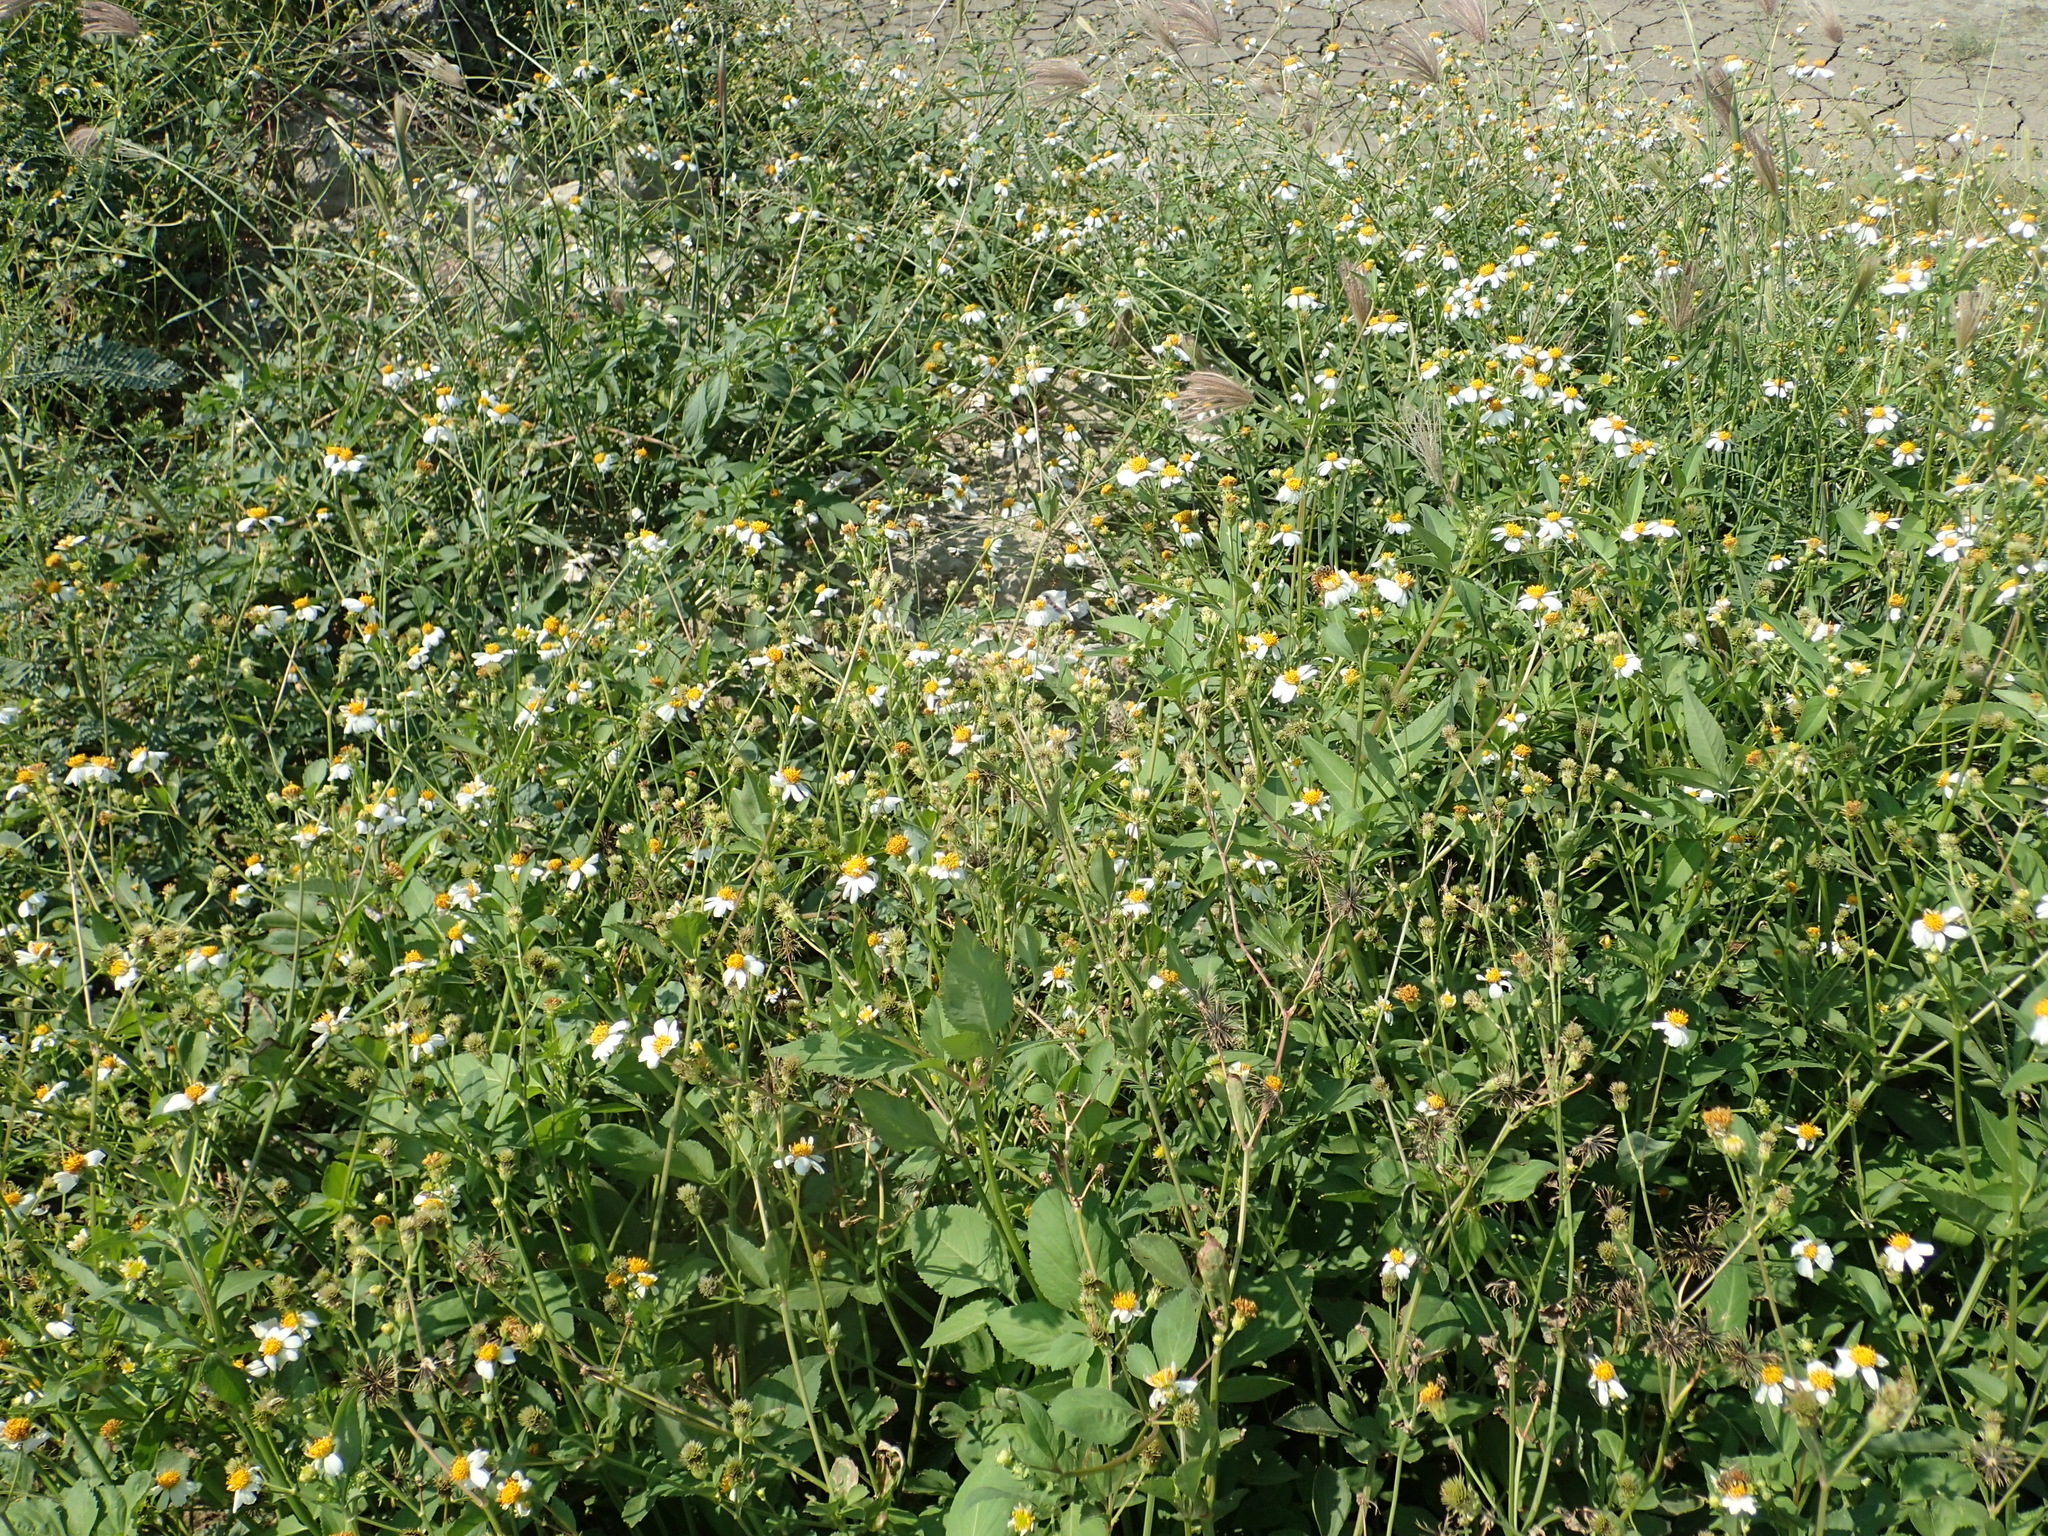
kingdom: Plantae
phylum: Tracheophyta
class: Magnoliopsida
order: Asterales
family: Asteraceae
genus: Bidens
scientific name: Bidens alba
